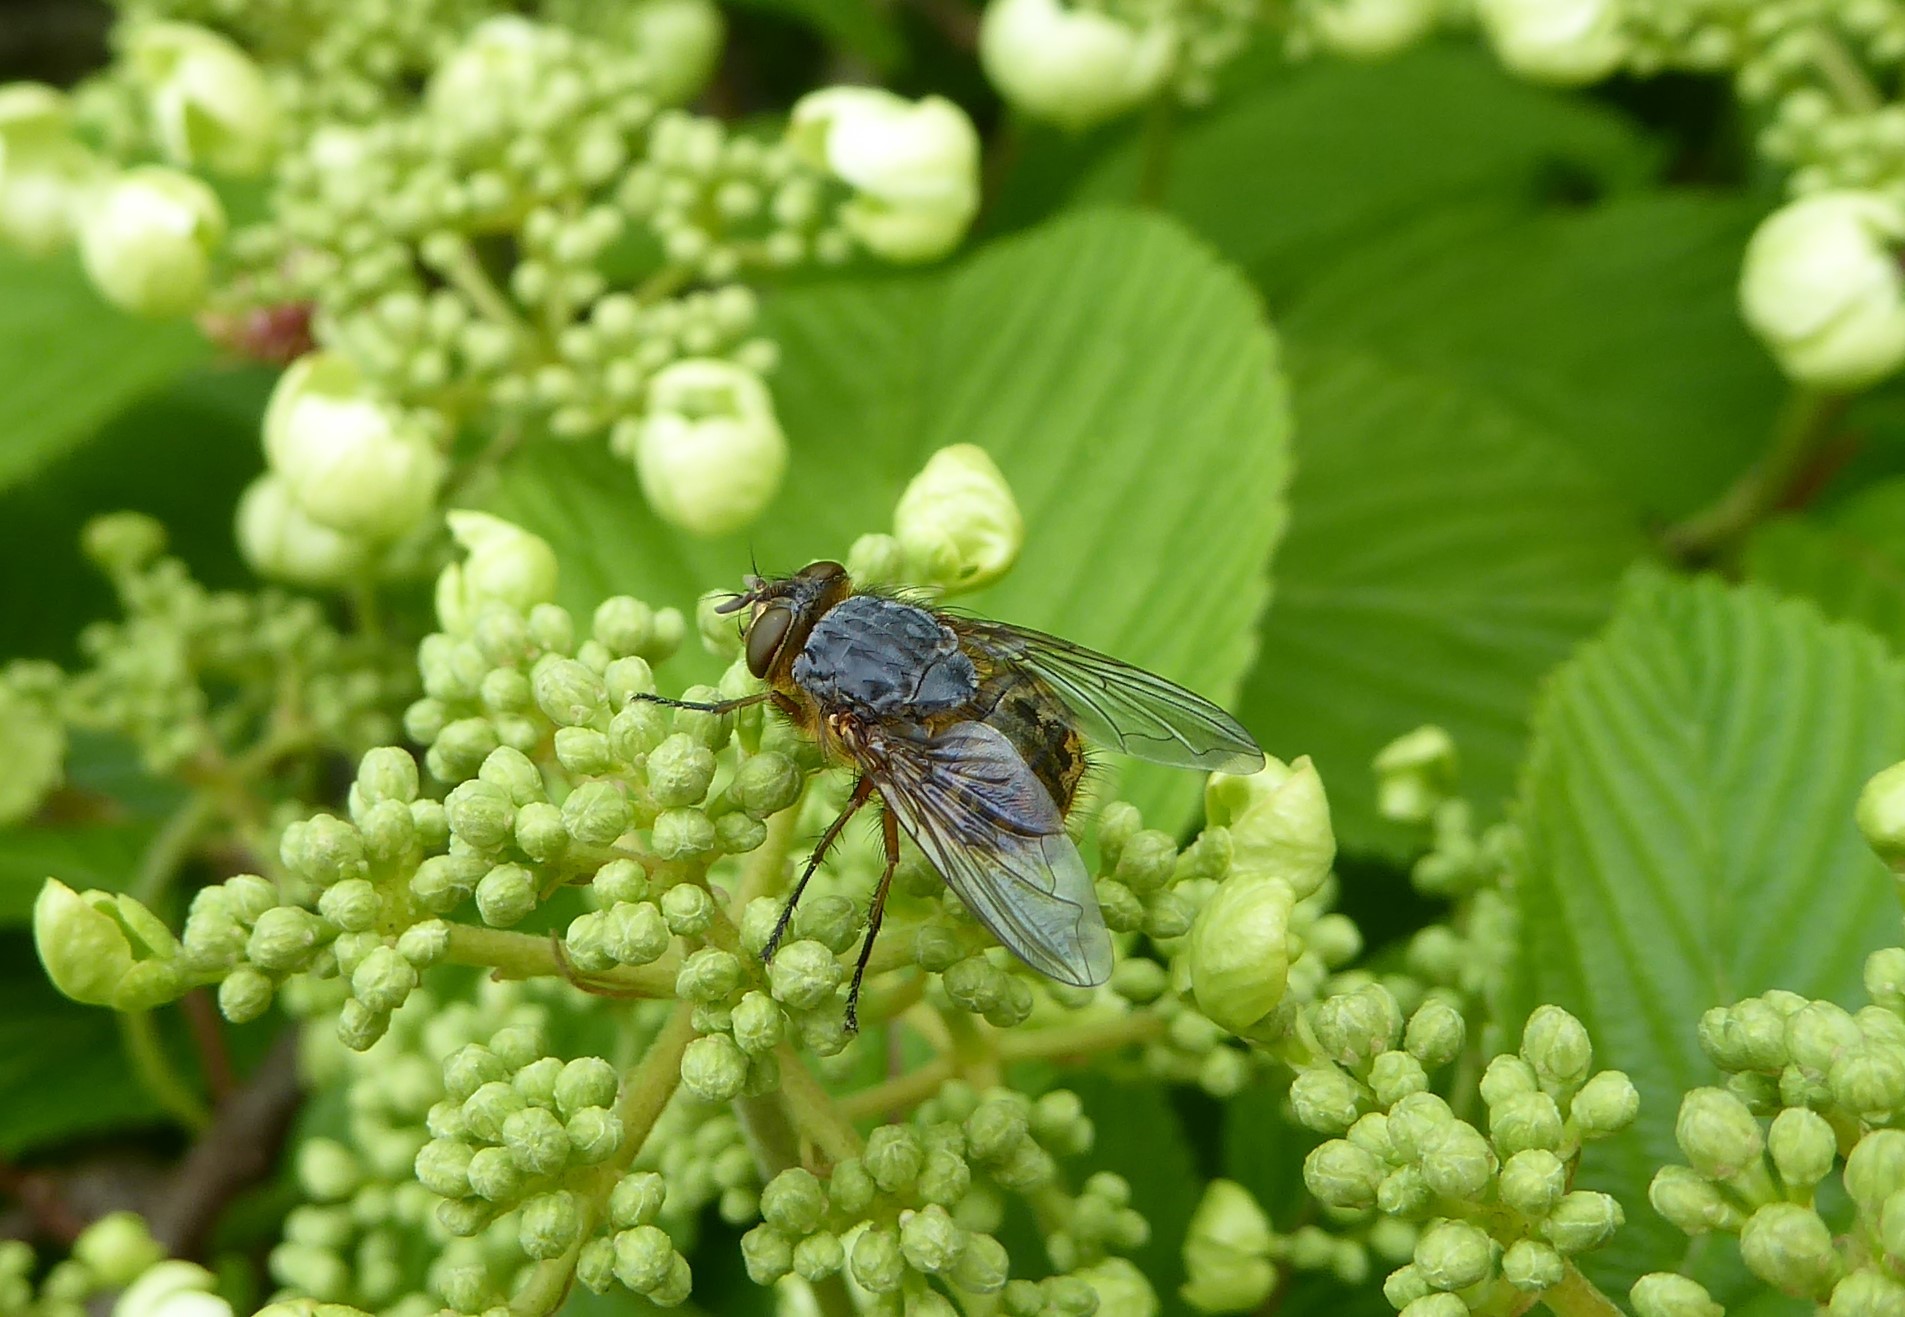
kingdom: Animalia
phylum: Arthropoda
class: Insecta
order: Diptera
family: Calliphoridae
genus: Calliphora
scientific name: Calliphora hilli
